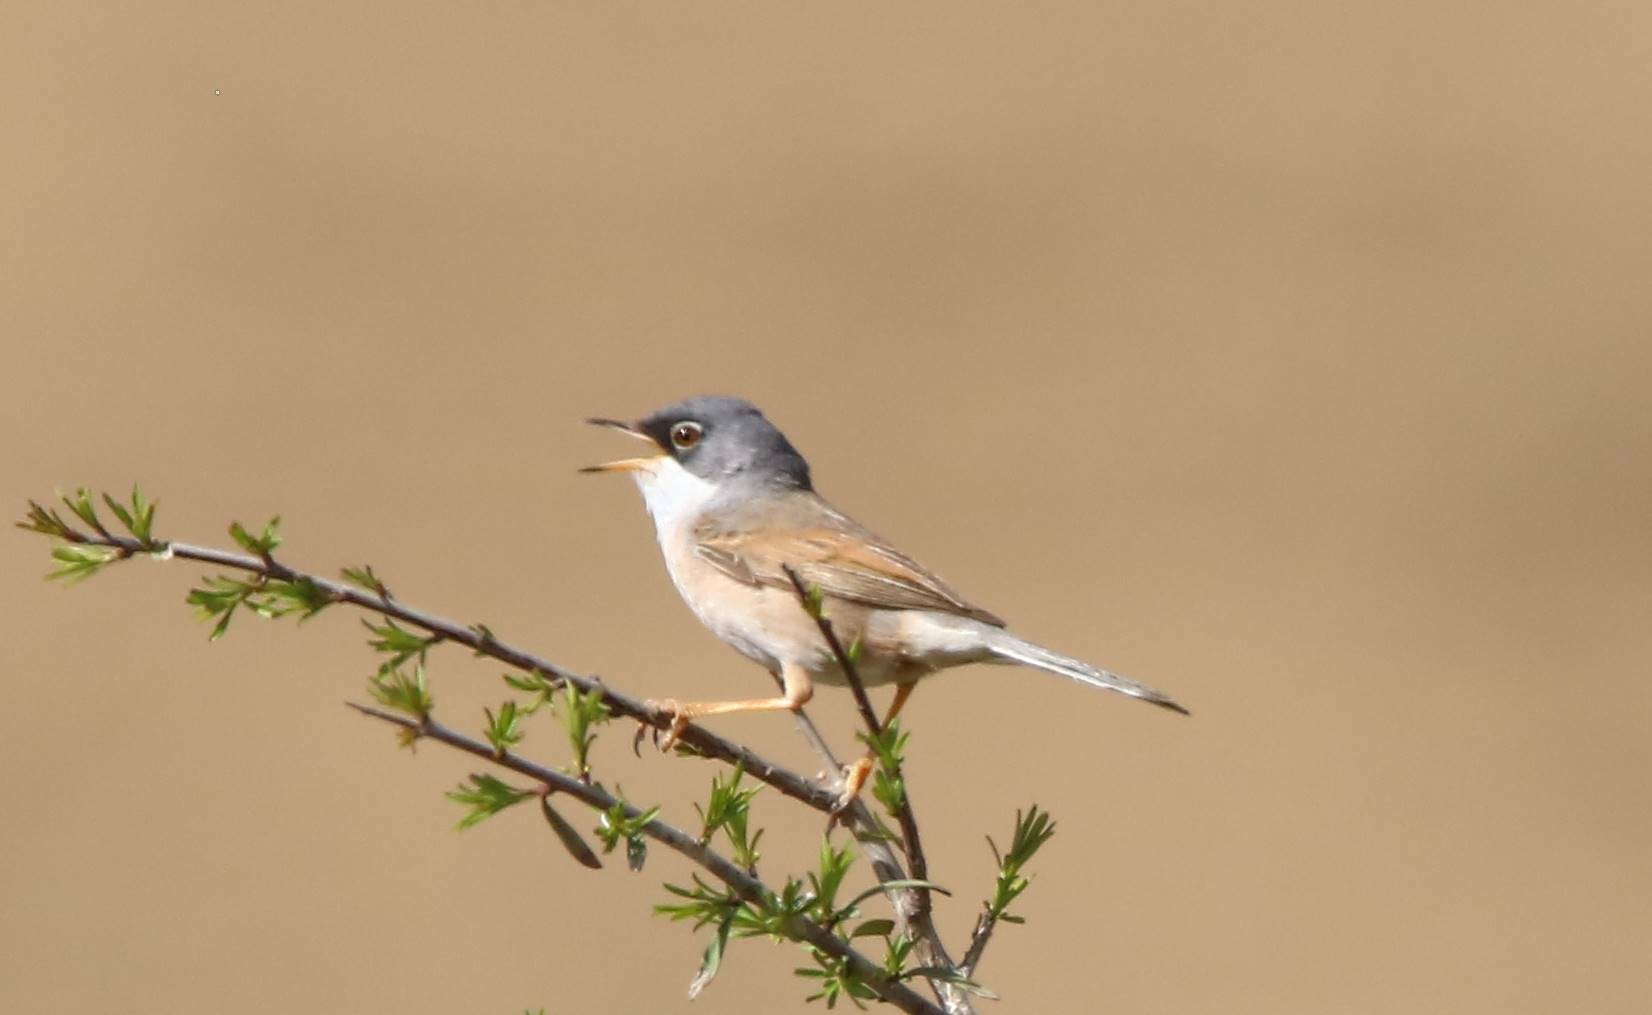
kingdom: Animalia
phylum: Chordata
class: Aves
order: Passeriformes
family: Sylviidae
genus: Sylvia
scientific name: Sylvia conspicillata
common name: Spectacled warbler
